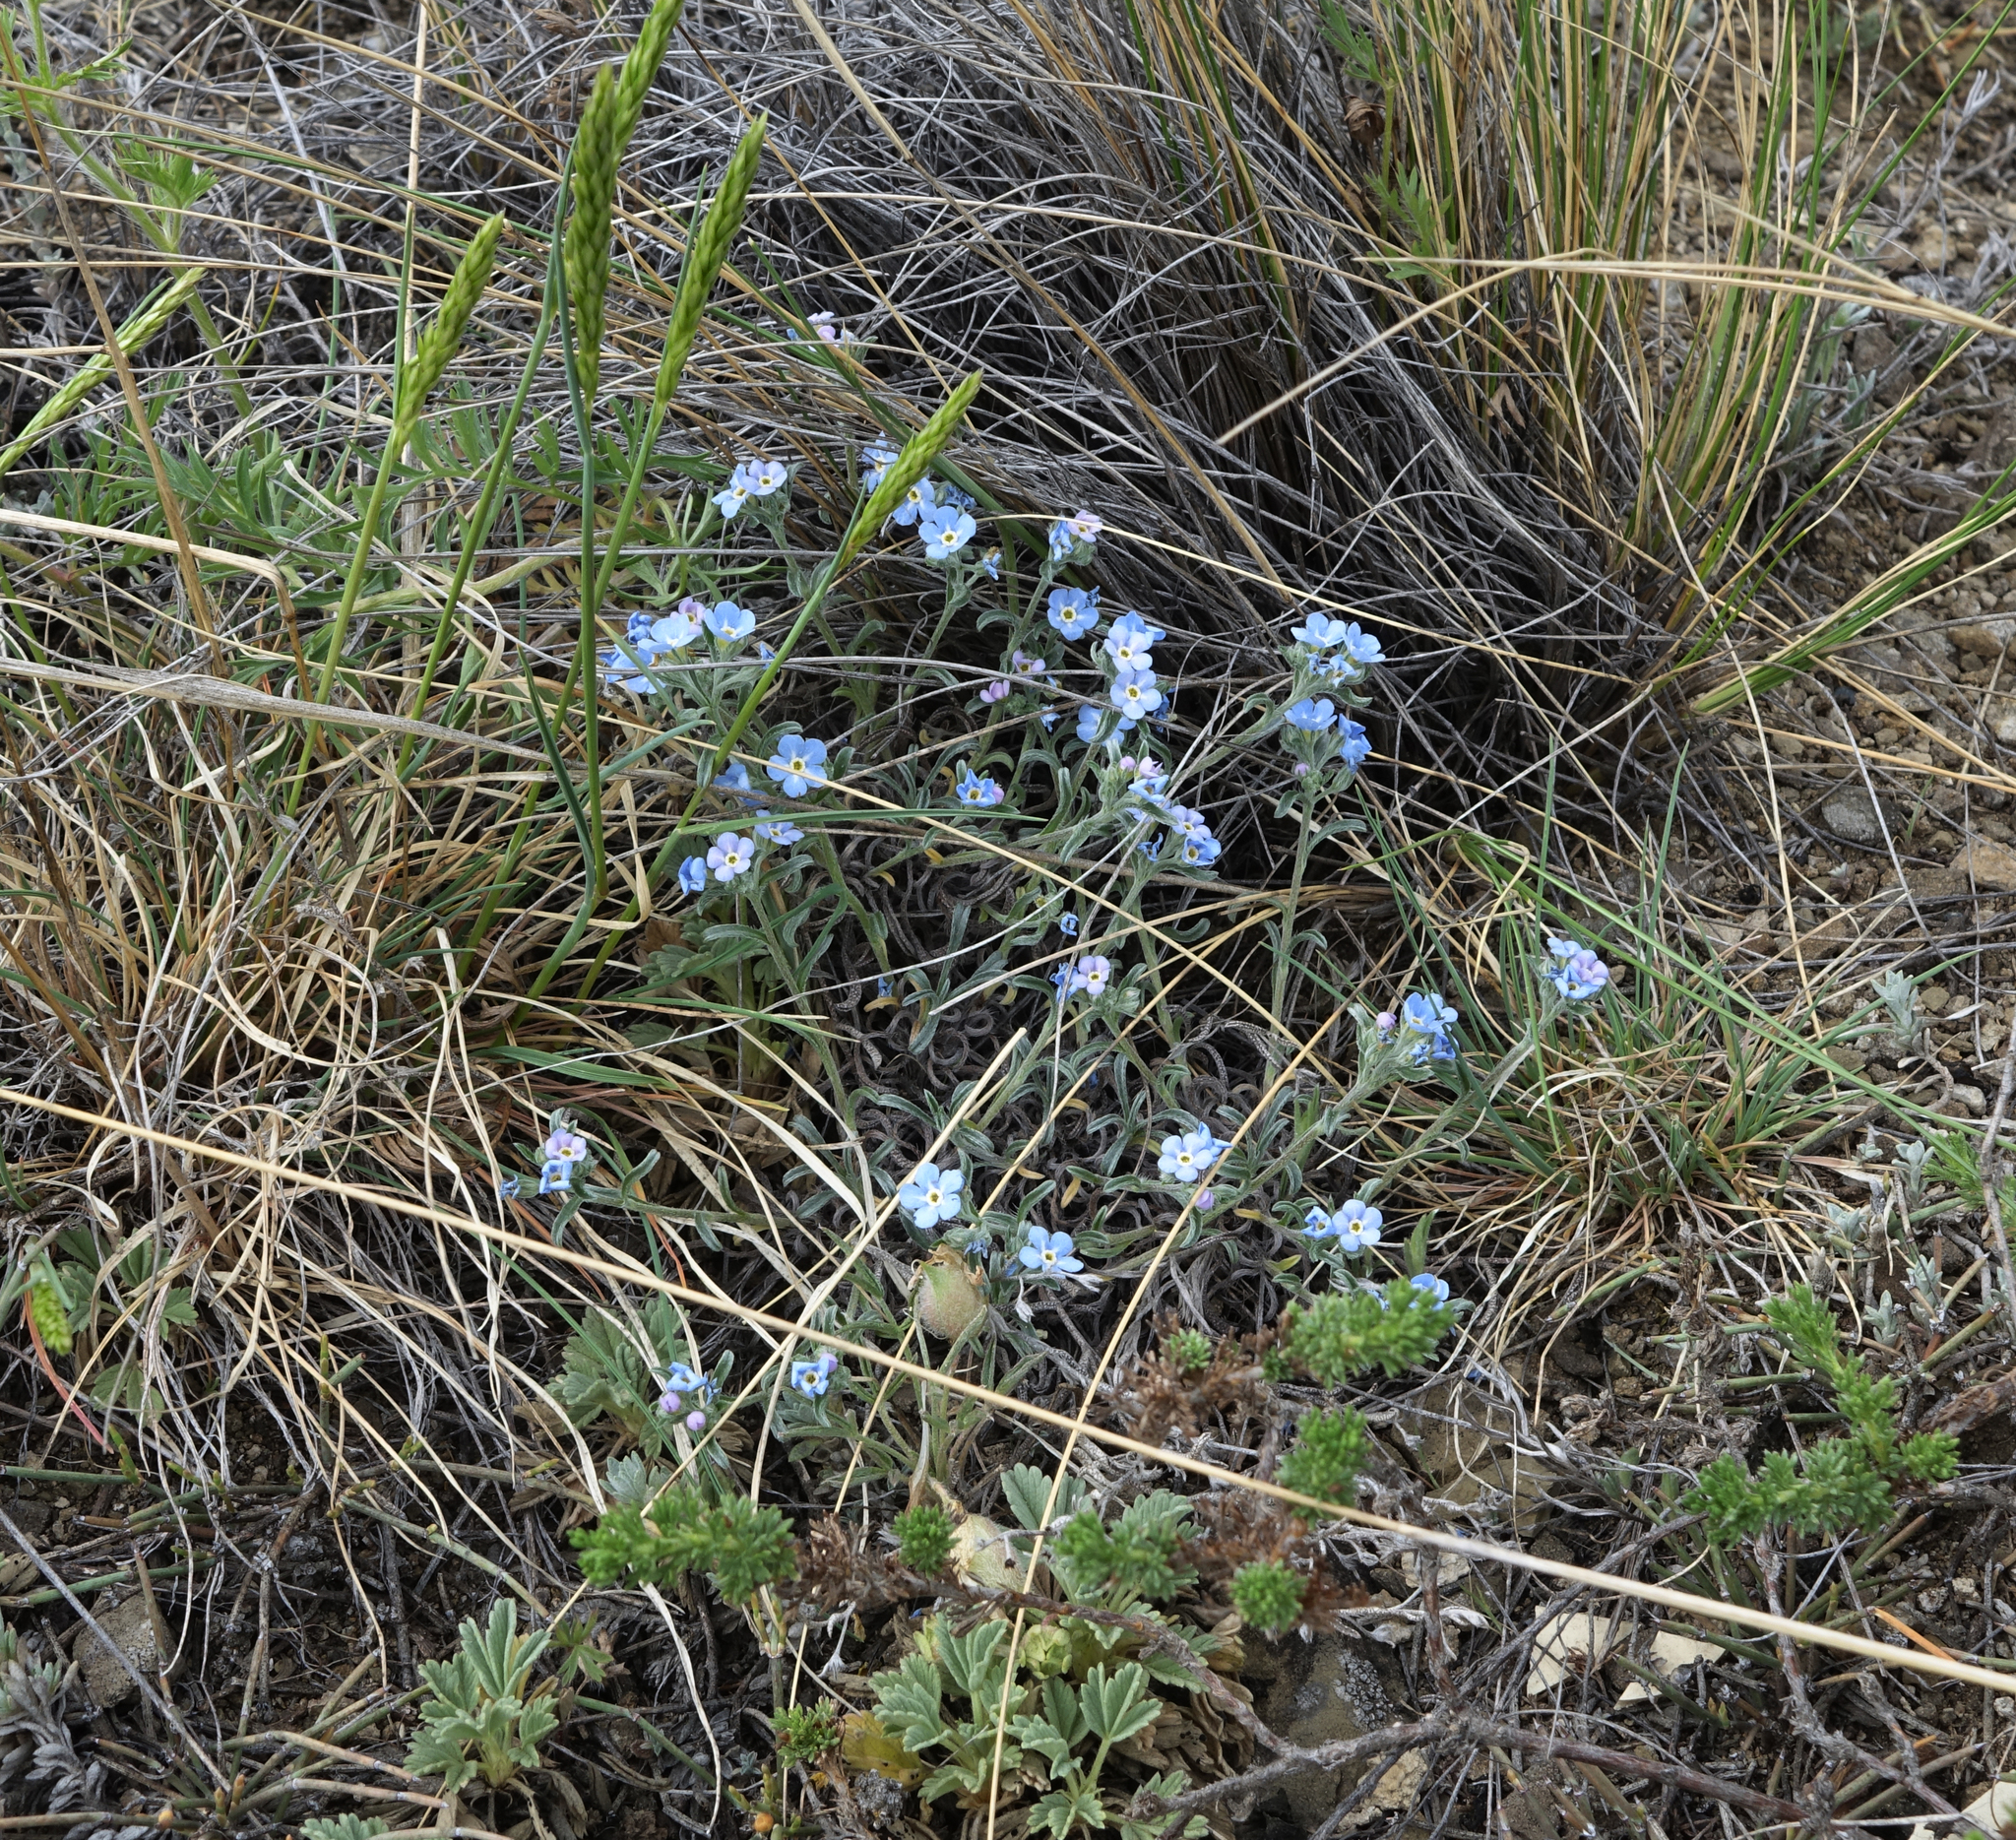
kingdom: Plantae
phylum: Tracheophyta
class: Magnoliopsida
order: Boraginales
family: Boraginaceae
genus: Eritrichium
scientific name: Eritrichium rupestre
